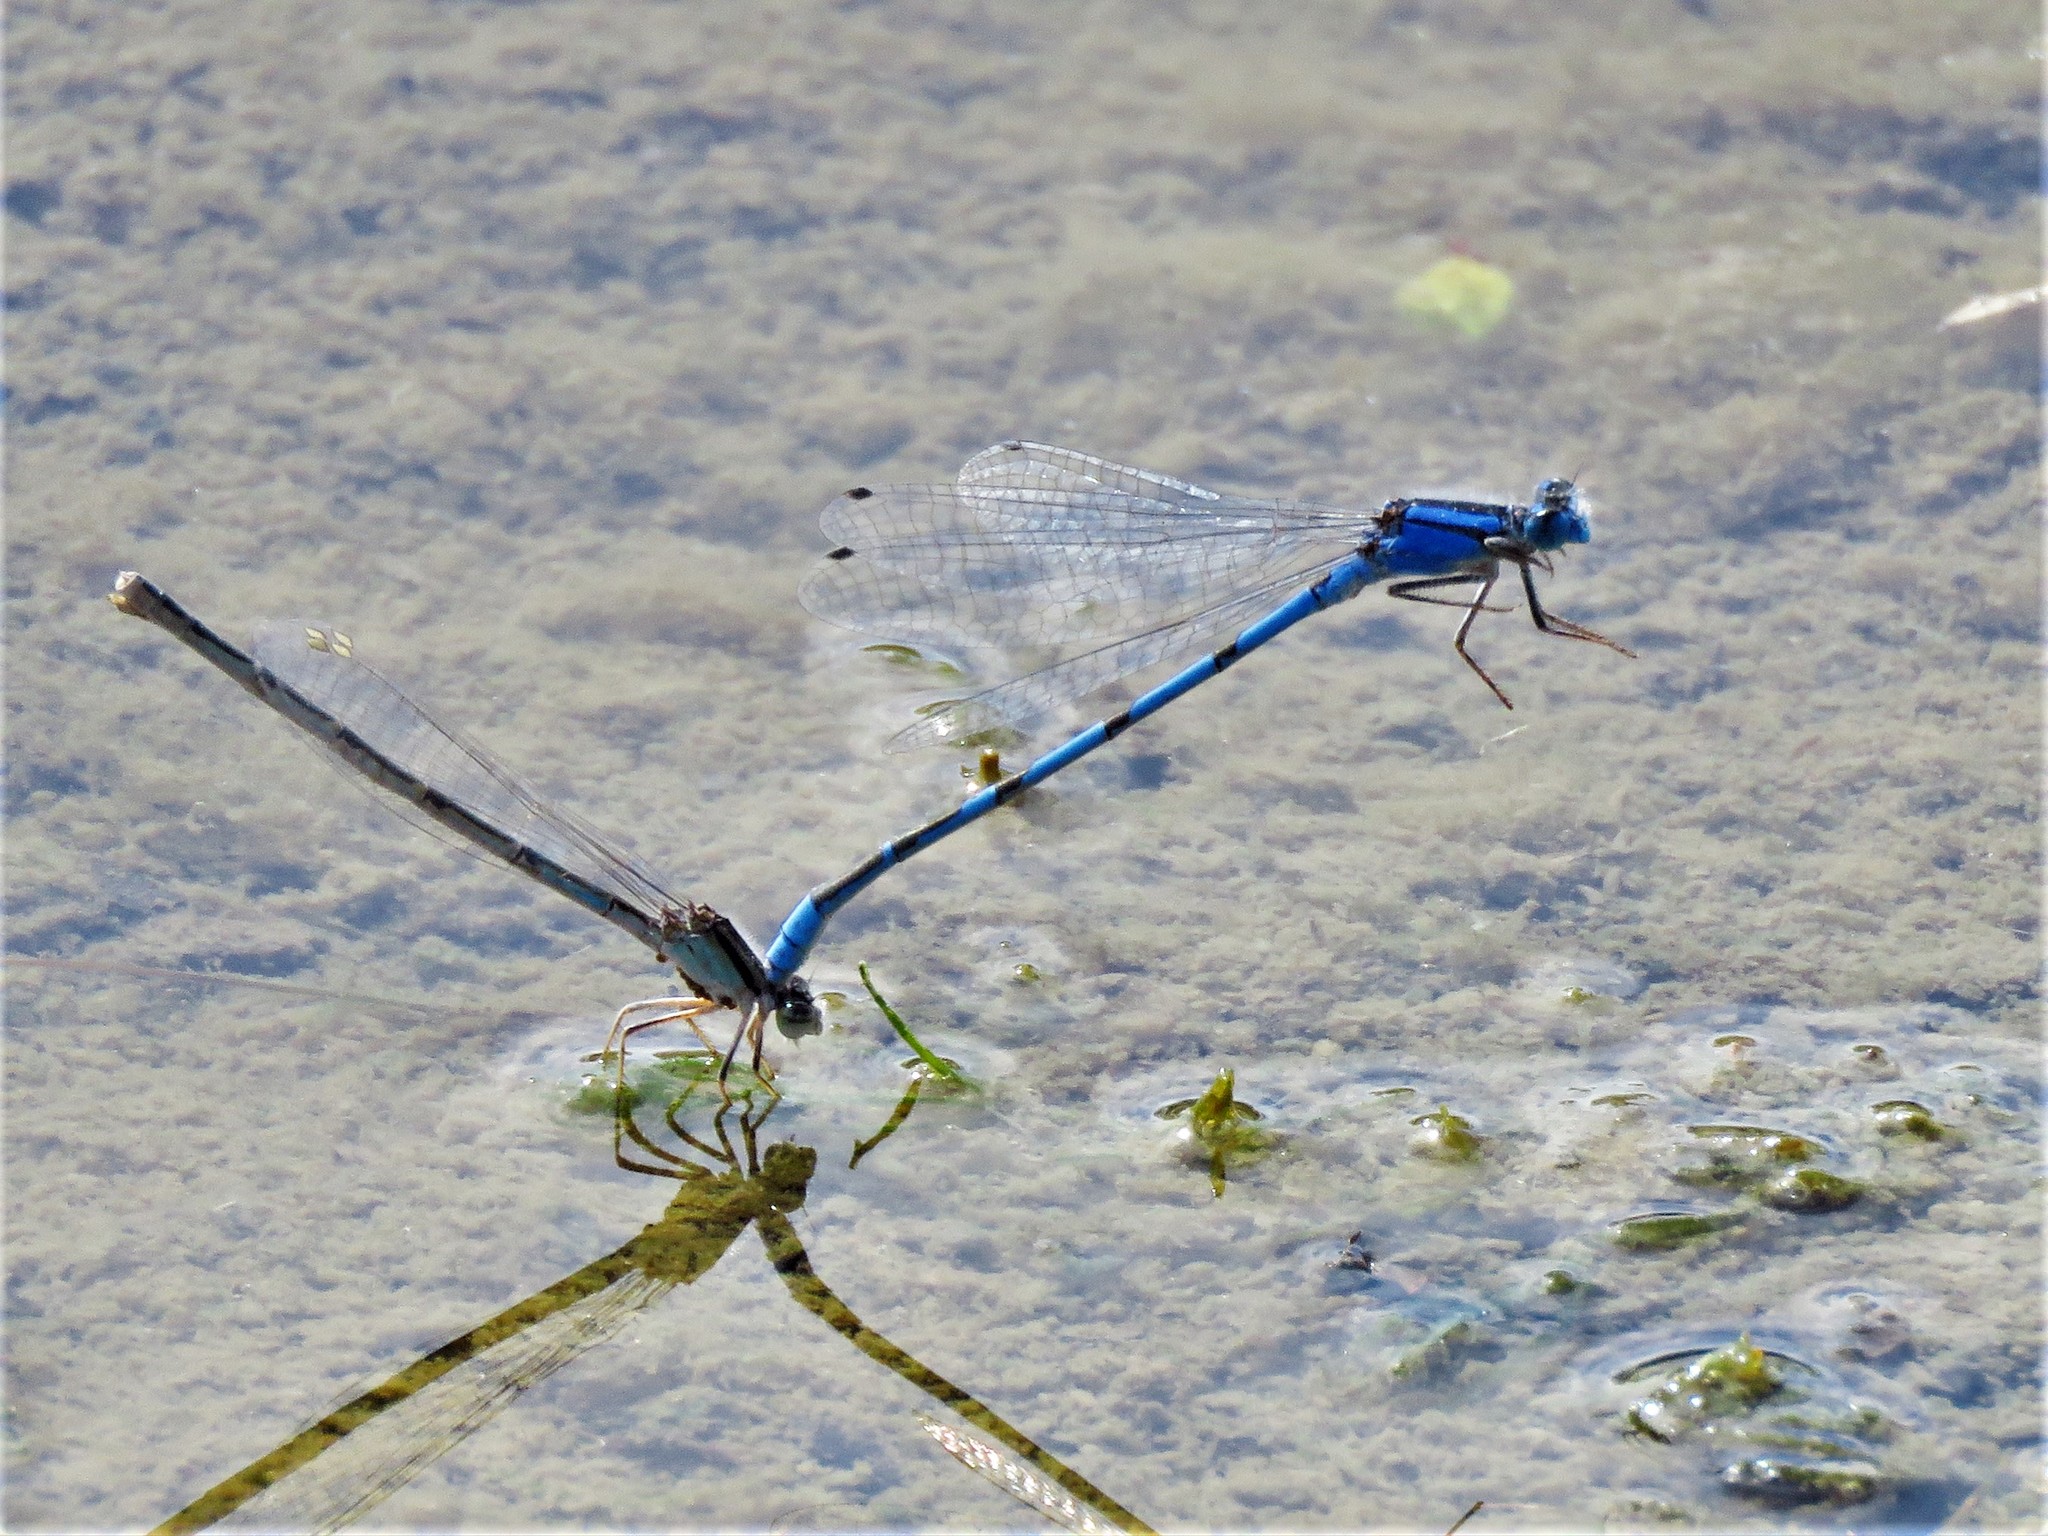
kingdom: Animalia
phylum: Arthropoda
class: Insecta
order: Odonata
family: Coenagrionidae
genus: Enallagma
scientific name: Enallagma civile
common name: Damselfly
